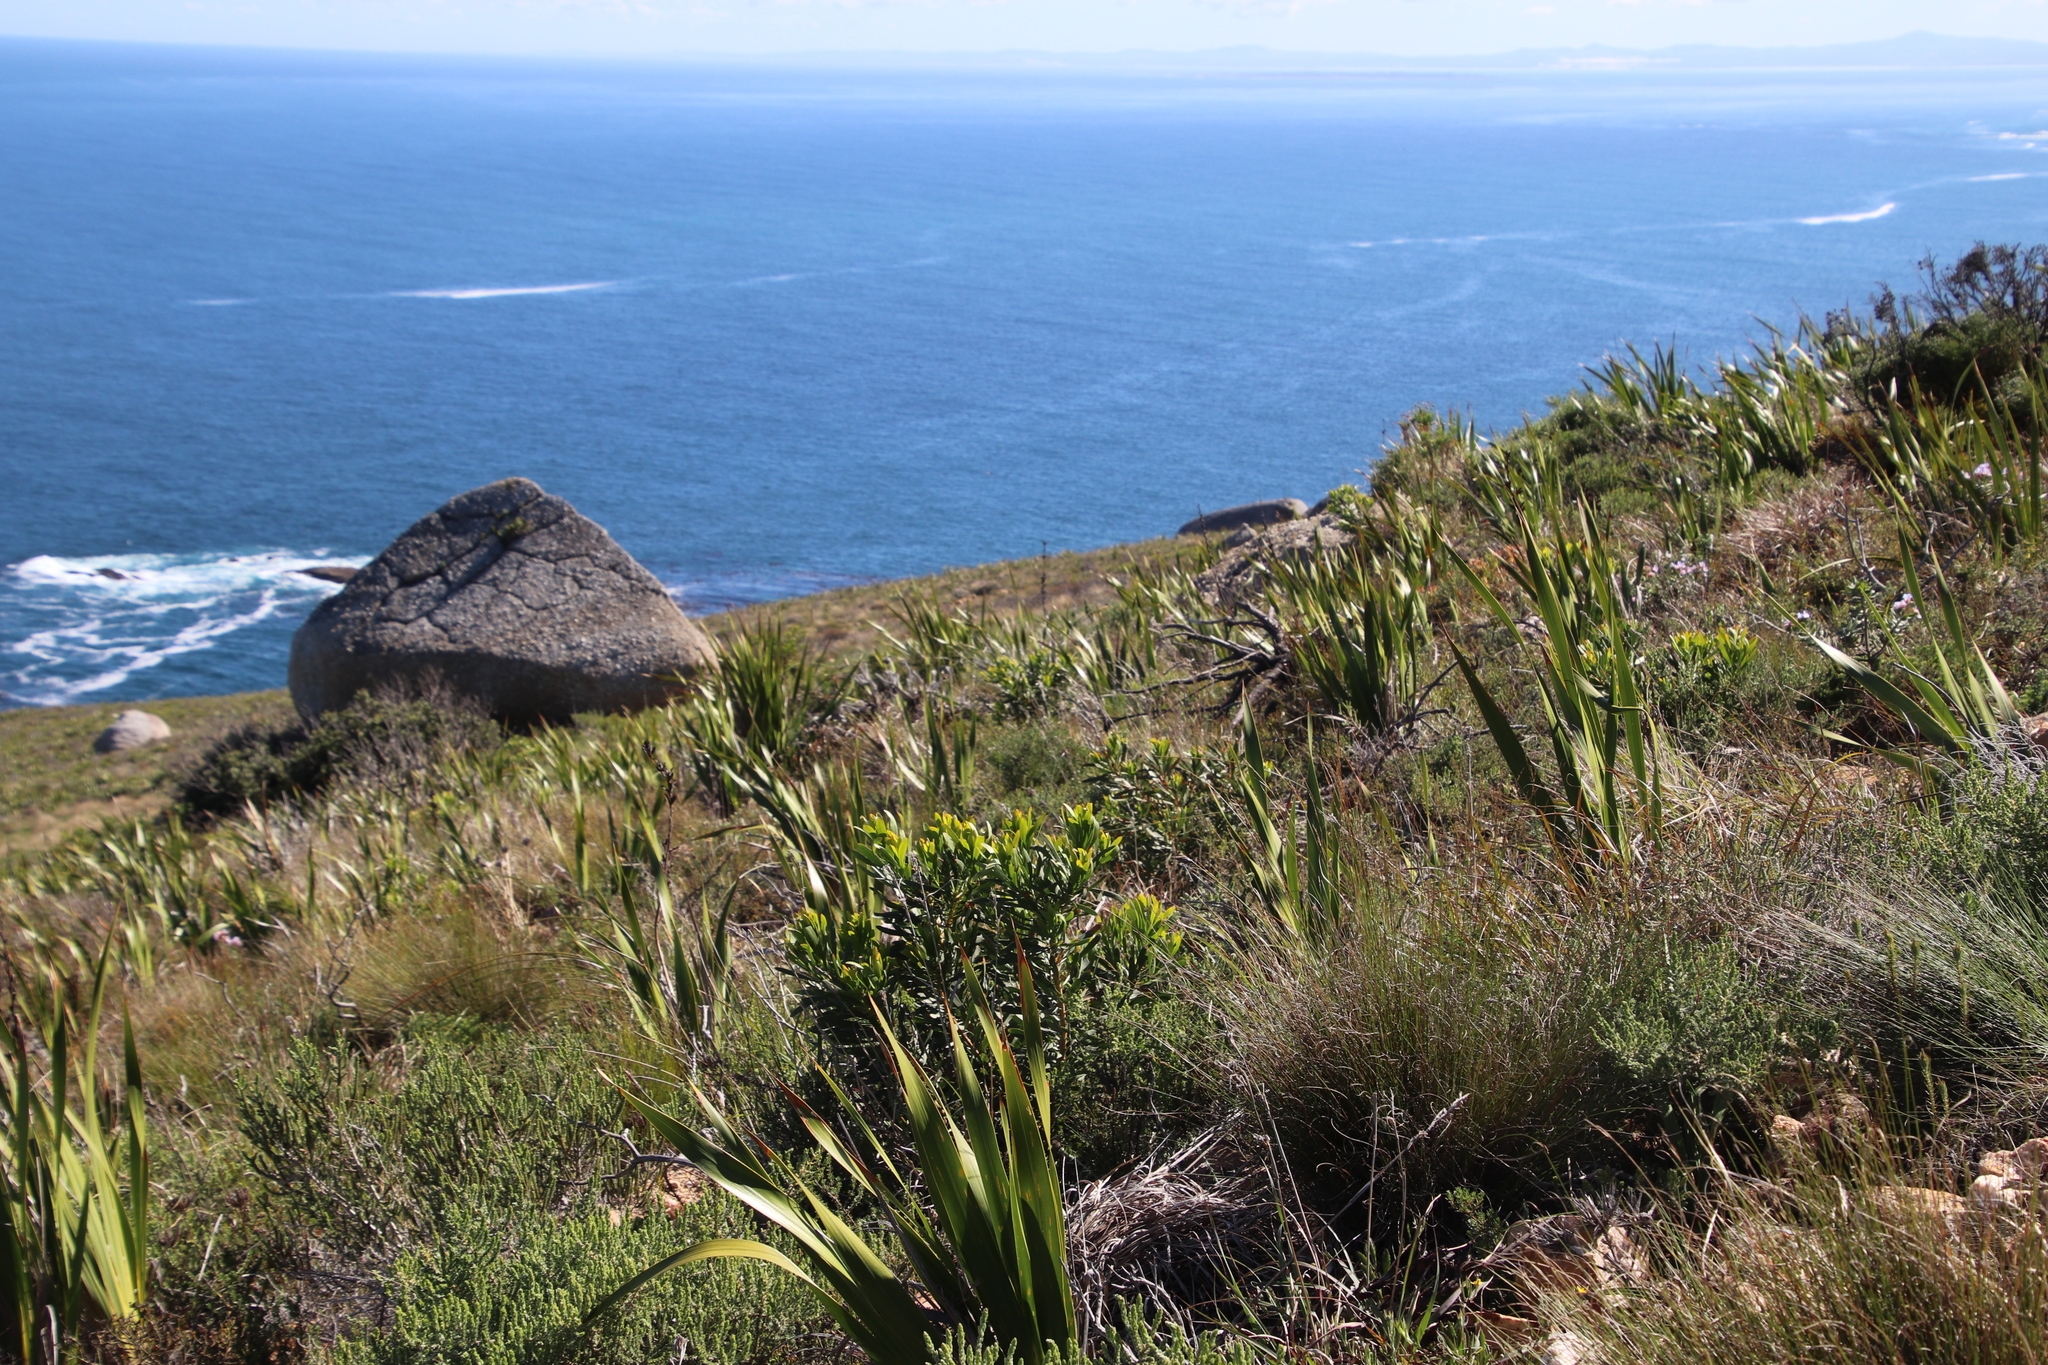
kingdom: Plantae
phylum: Tracheophyta
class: Magnoliopsida
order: Proteales
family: Proteaceae
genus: Protea
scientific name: Protea repens
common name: Sugarbush
